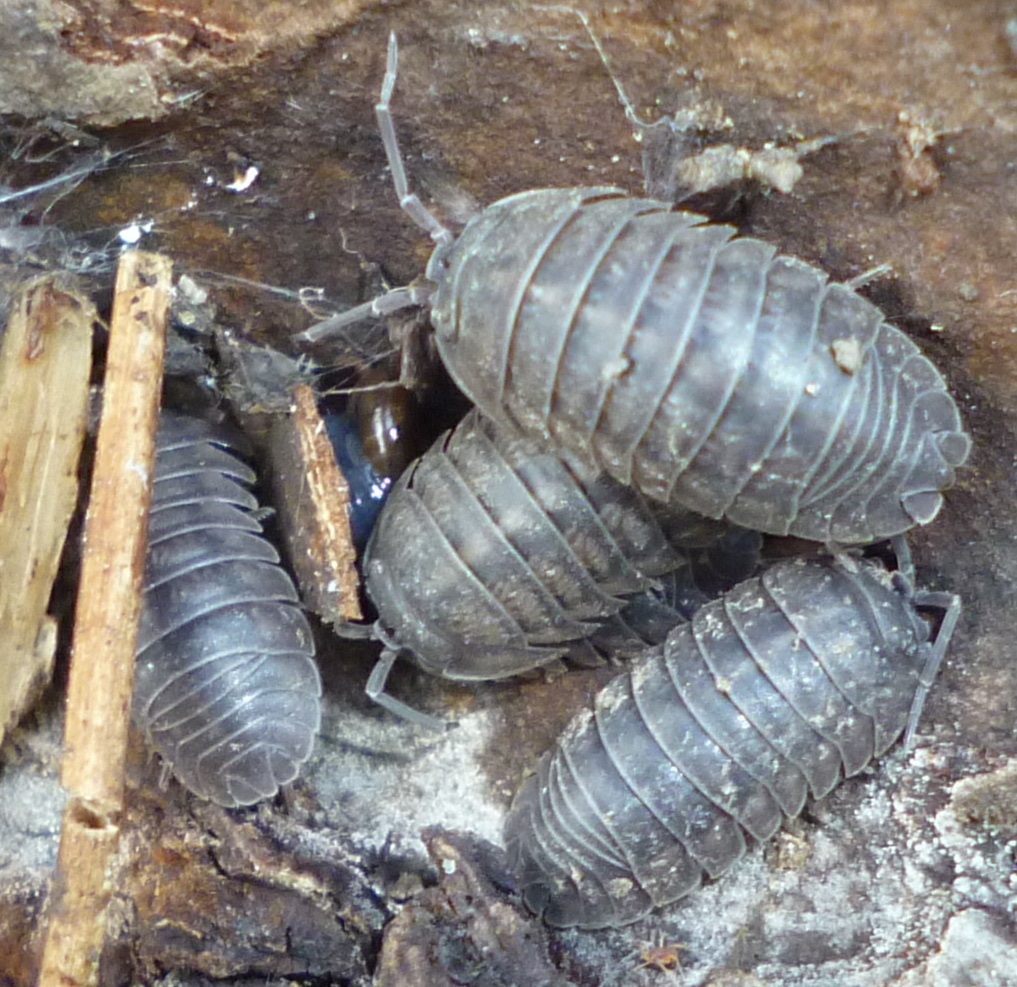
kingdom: Animalia
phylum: Arthropoda
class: Malacostraca
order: Isopoda
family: Armadillidiidae
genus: Armadillidium
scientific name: Armadillidium nasatum
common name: Isopod
